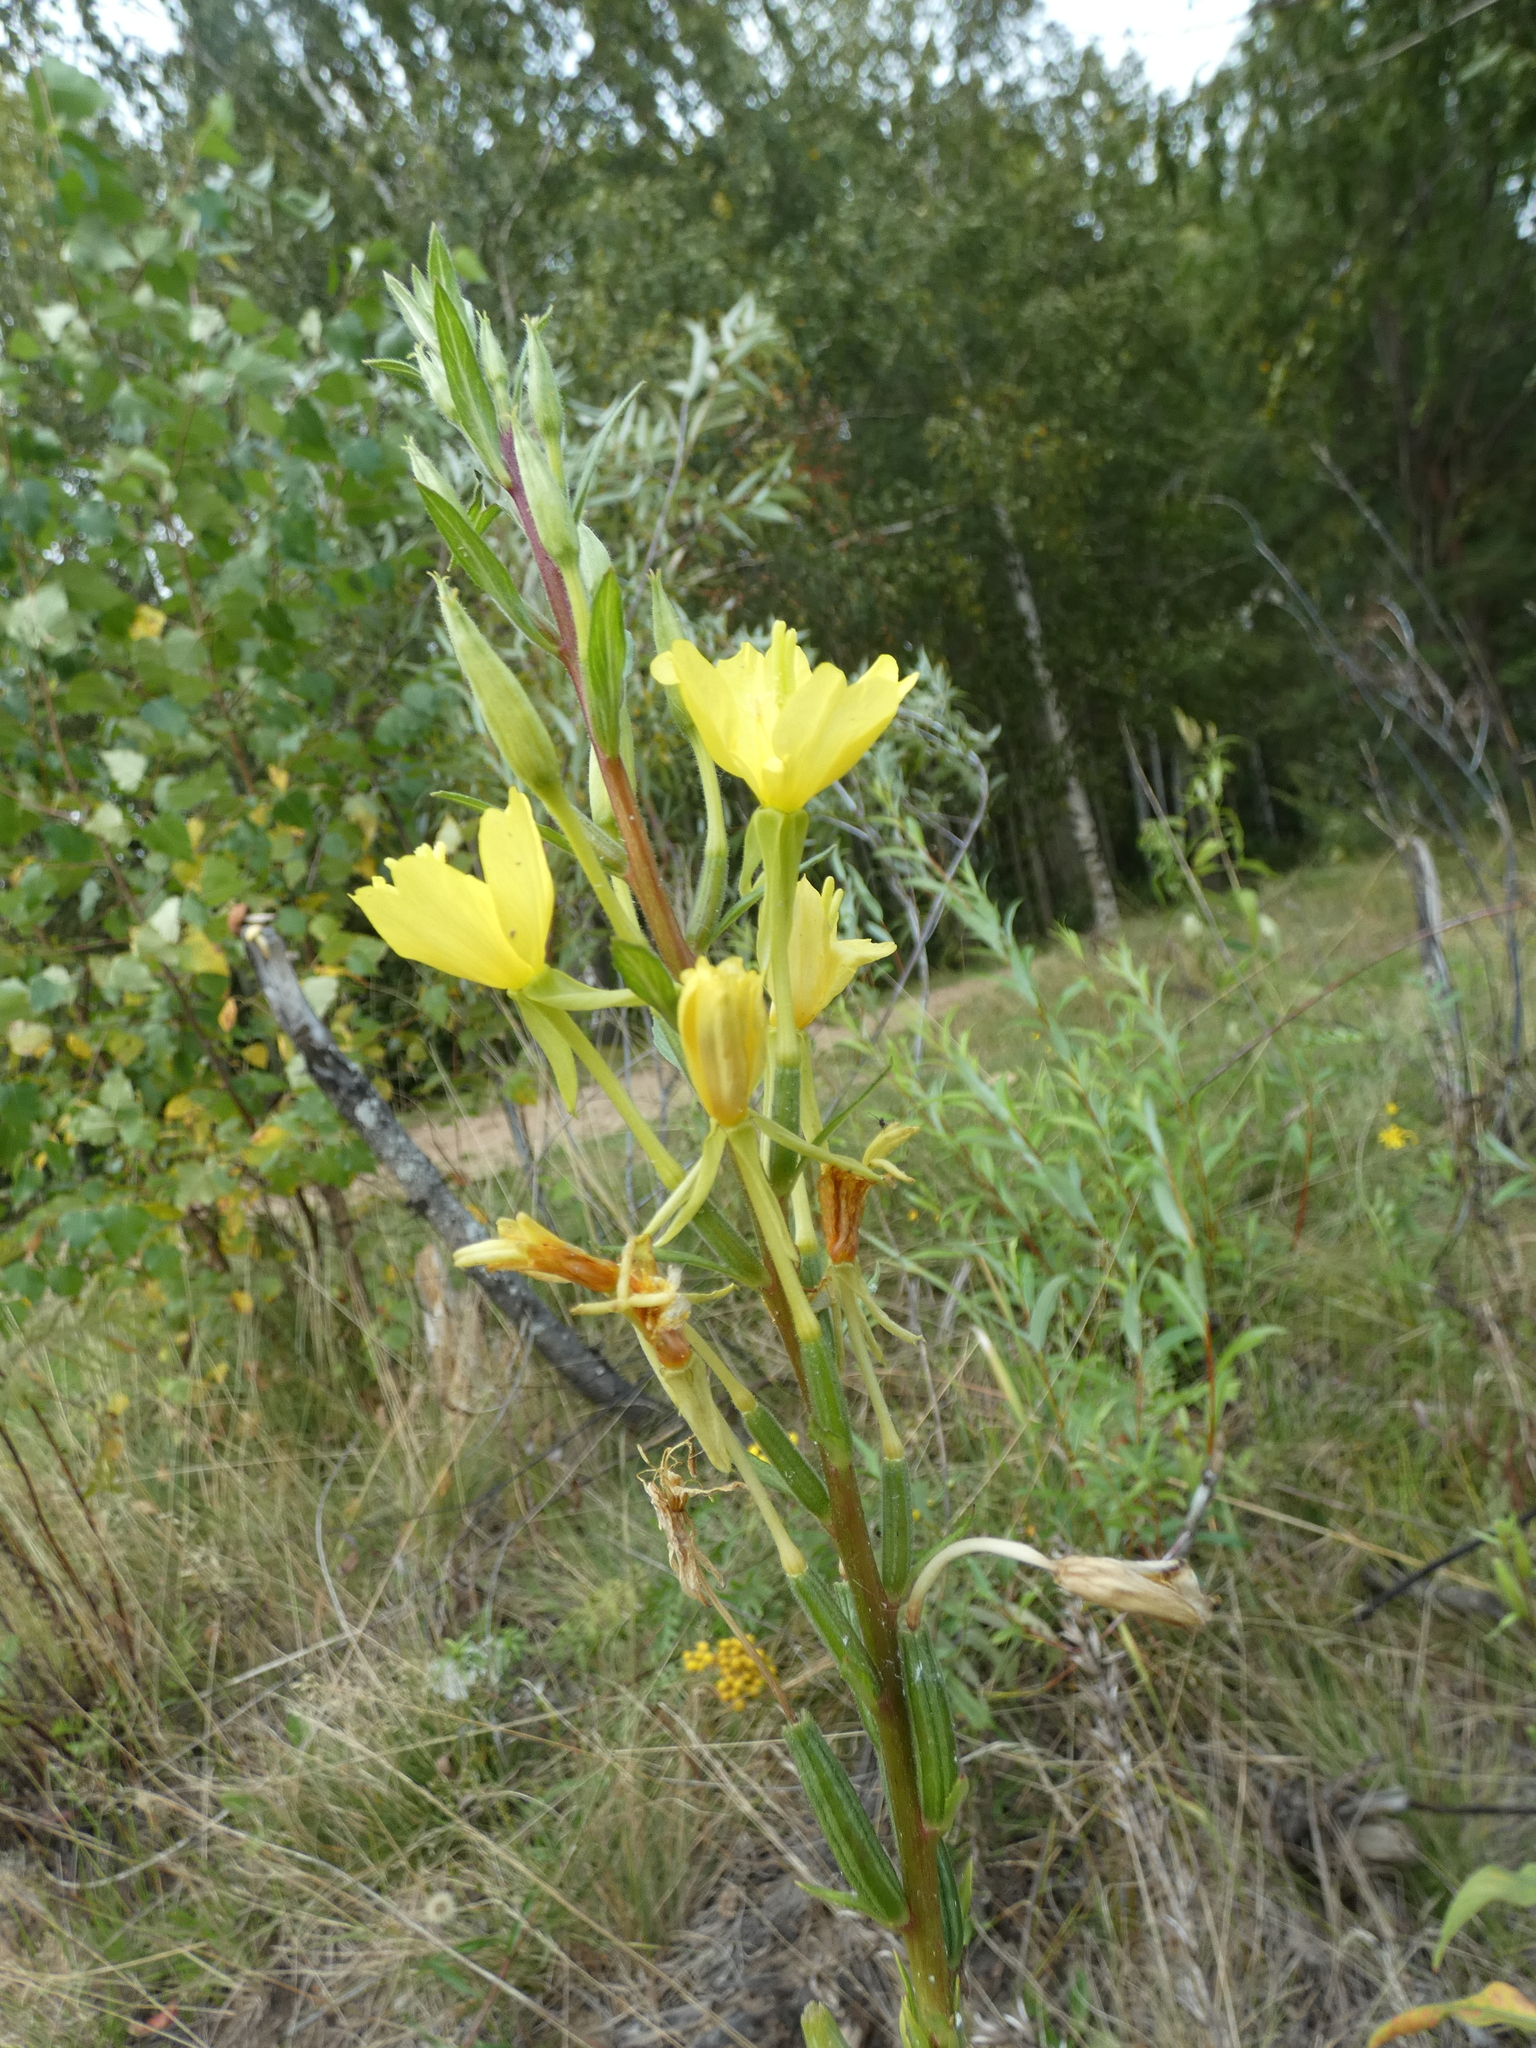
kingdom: Plantae
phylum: Tracheophyta
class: Magnoliopsida
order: Myrtales
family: Onagraceae
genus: Oenothera
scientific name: Oenothera rubricaulis
